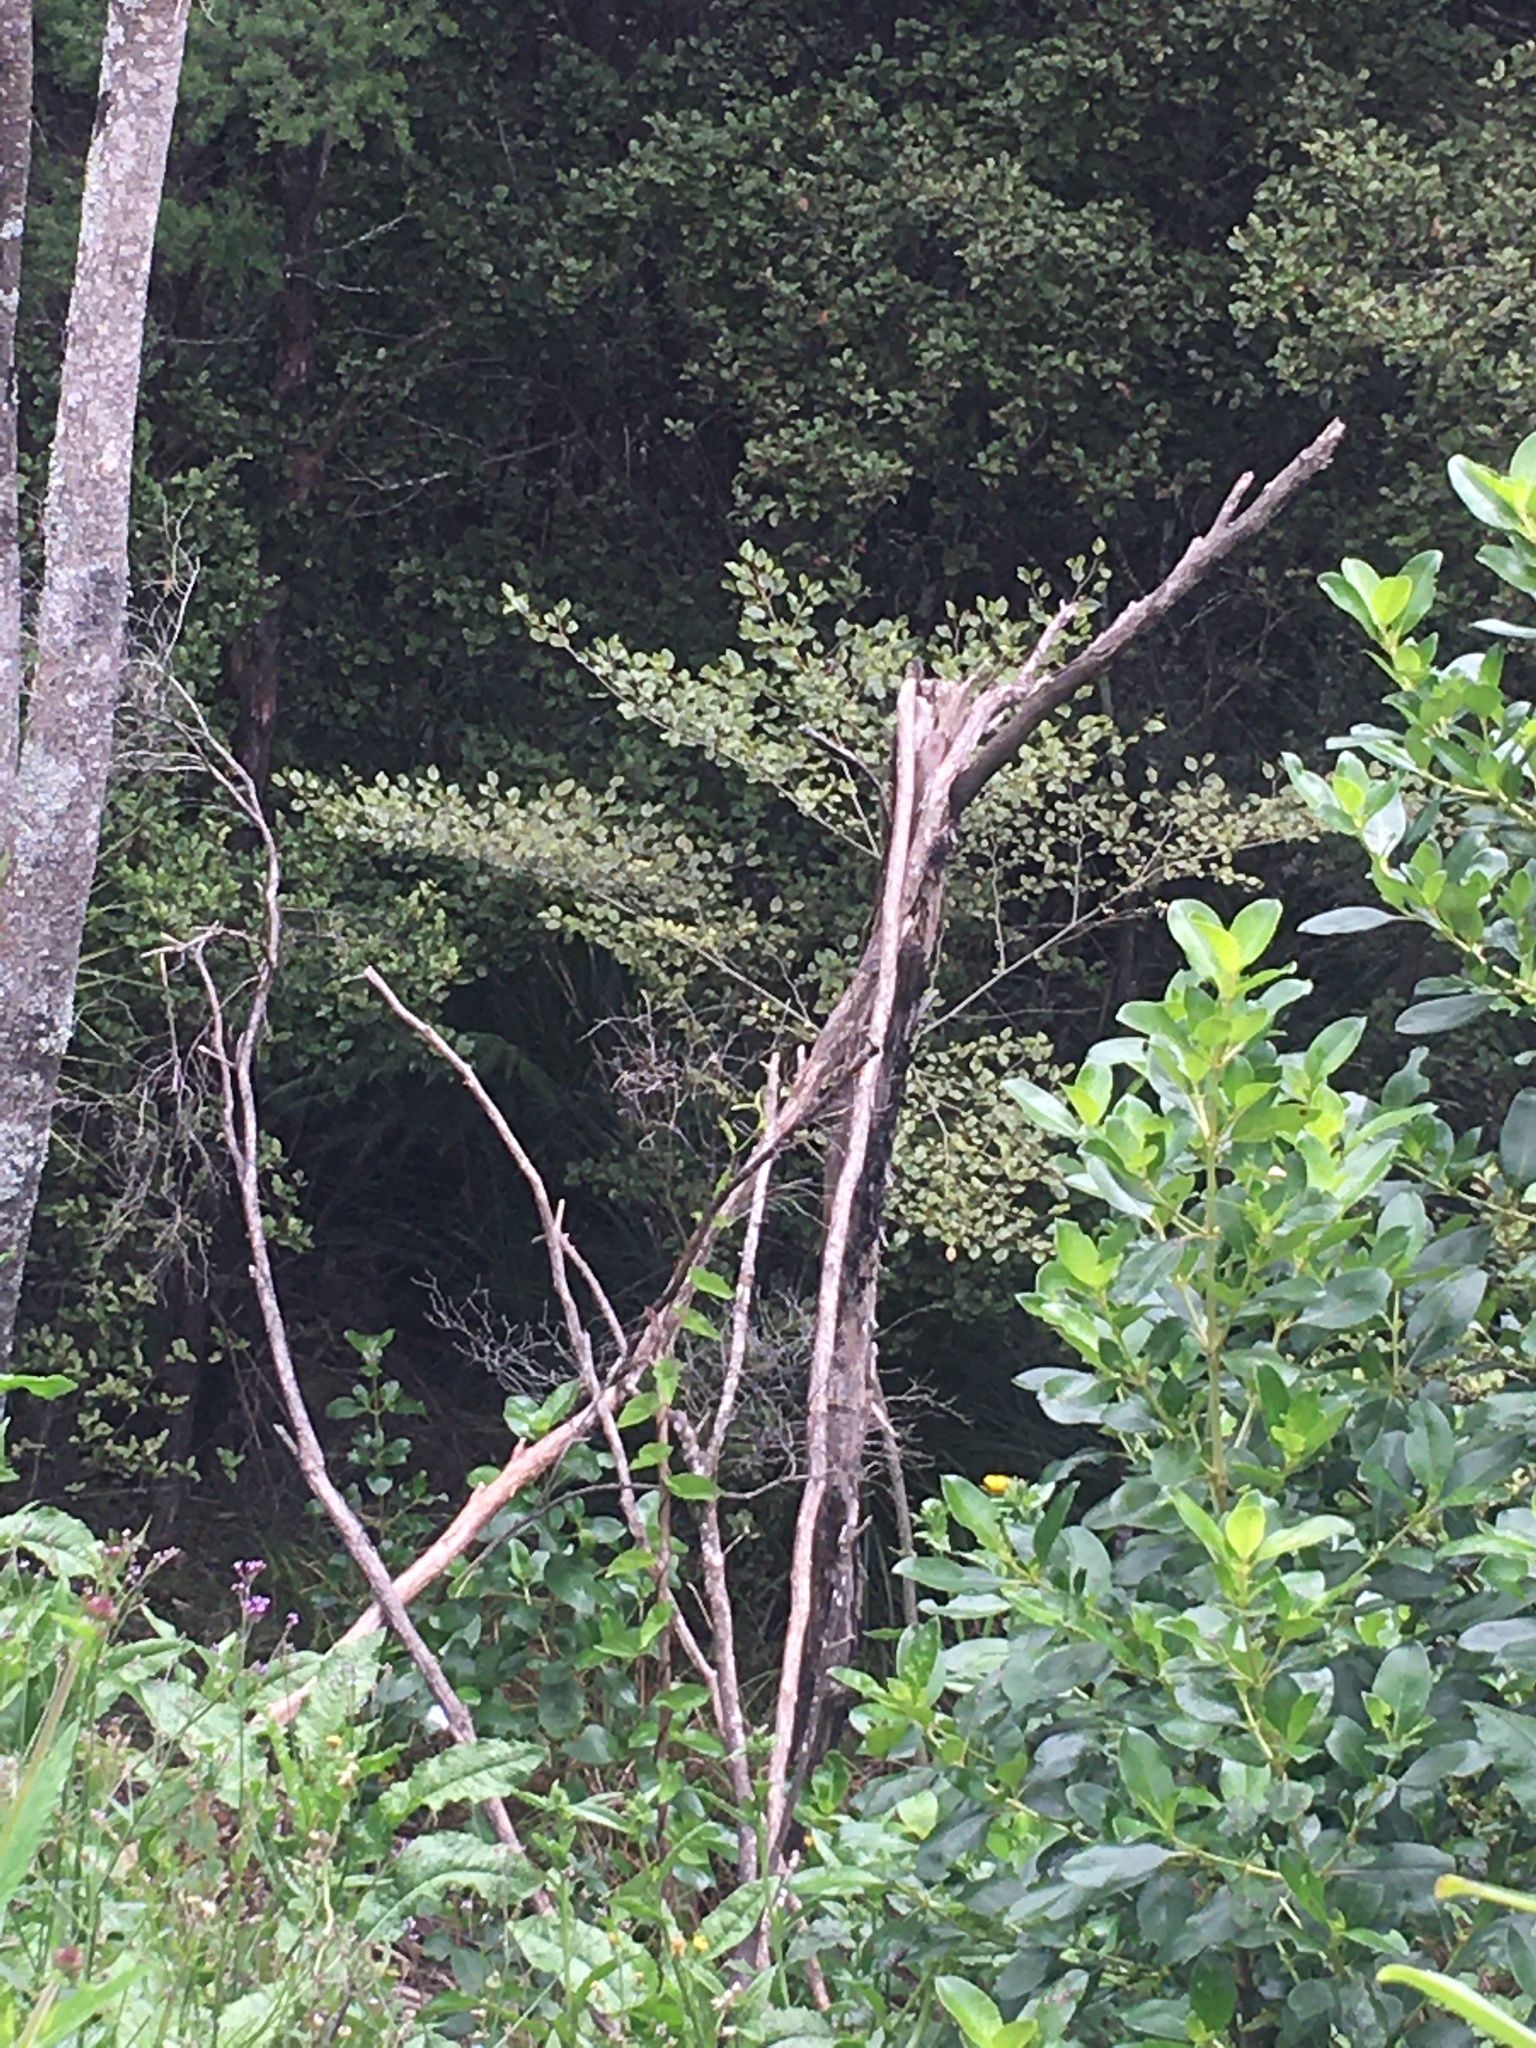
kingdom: Plantae
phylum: Tracheophyta
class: Magnoliopsida
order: Asterales
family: Rousseaceae
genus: Carpodetus
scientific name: Carpodetus serratus
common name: White mapau
